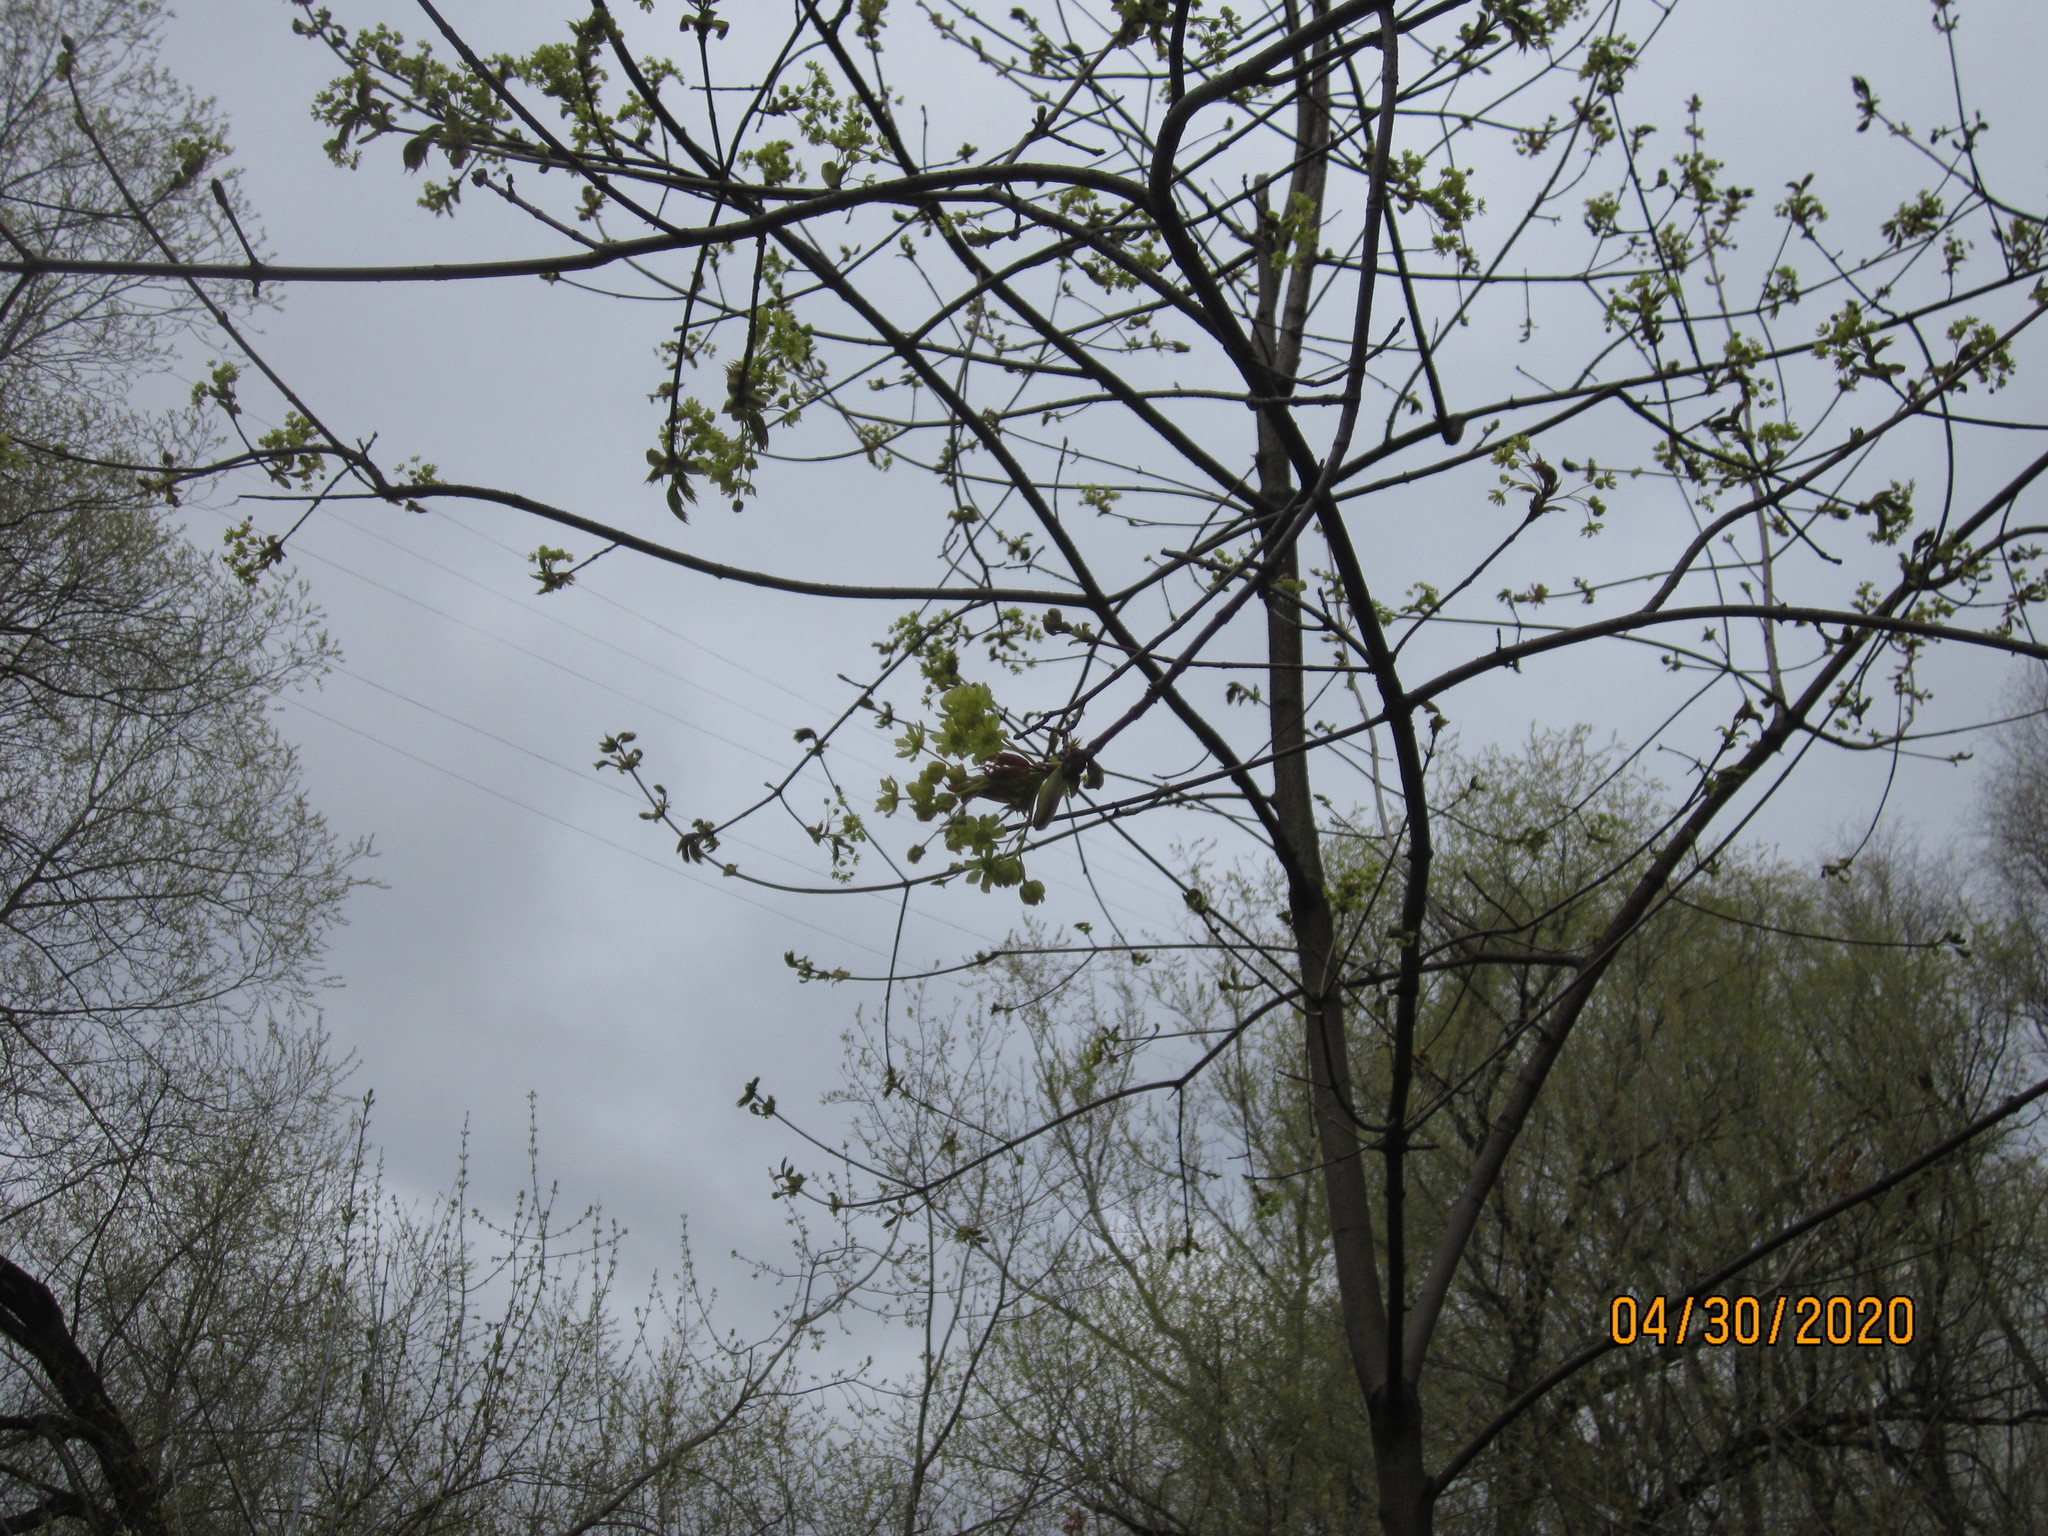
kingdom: Plantae
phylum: Tracheophyta
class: Magnoliopsida
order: Sapindales
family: Sapindaceae
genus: Acer
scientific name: Acer platanoides
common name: Norway maple
